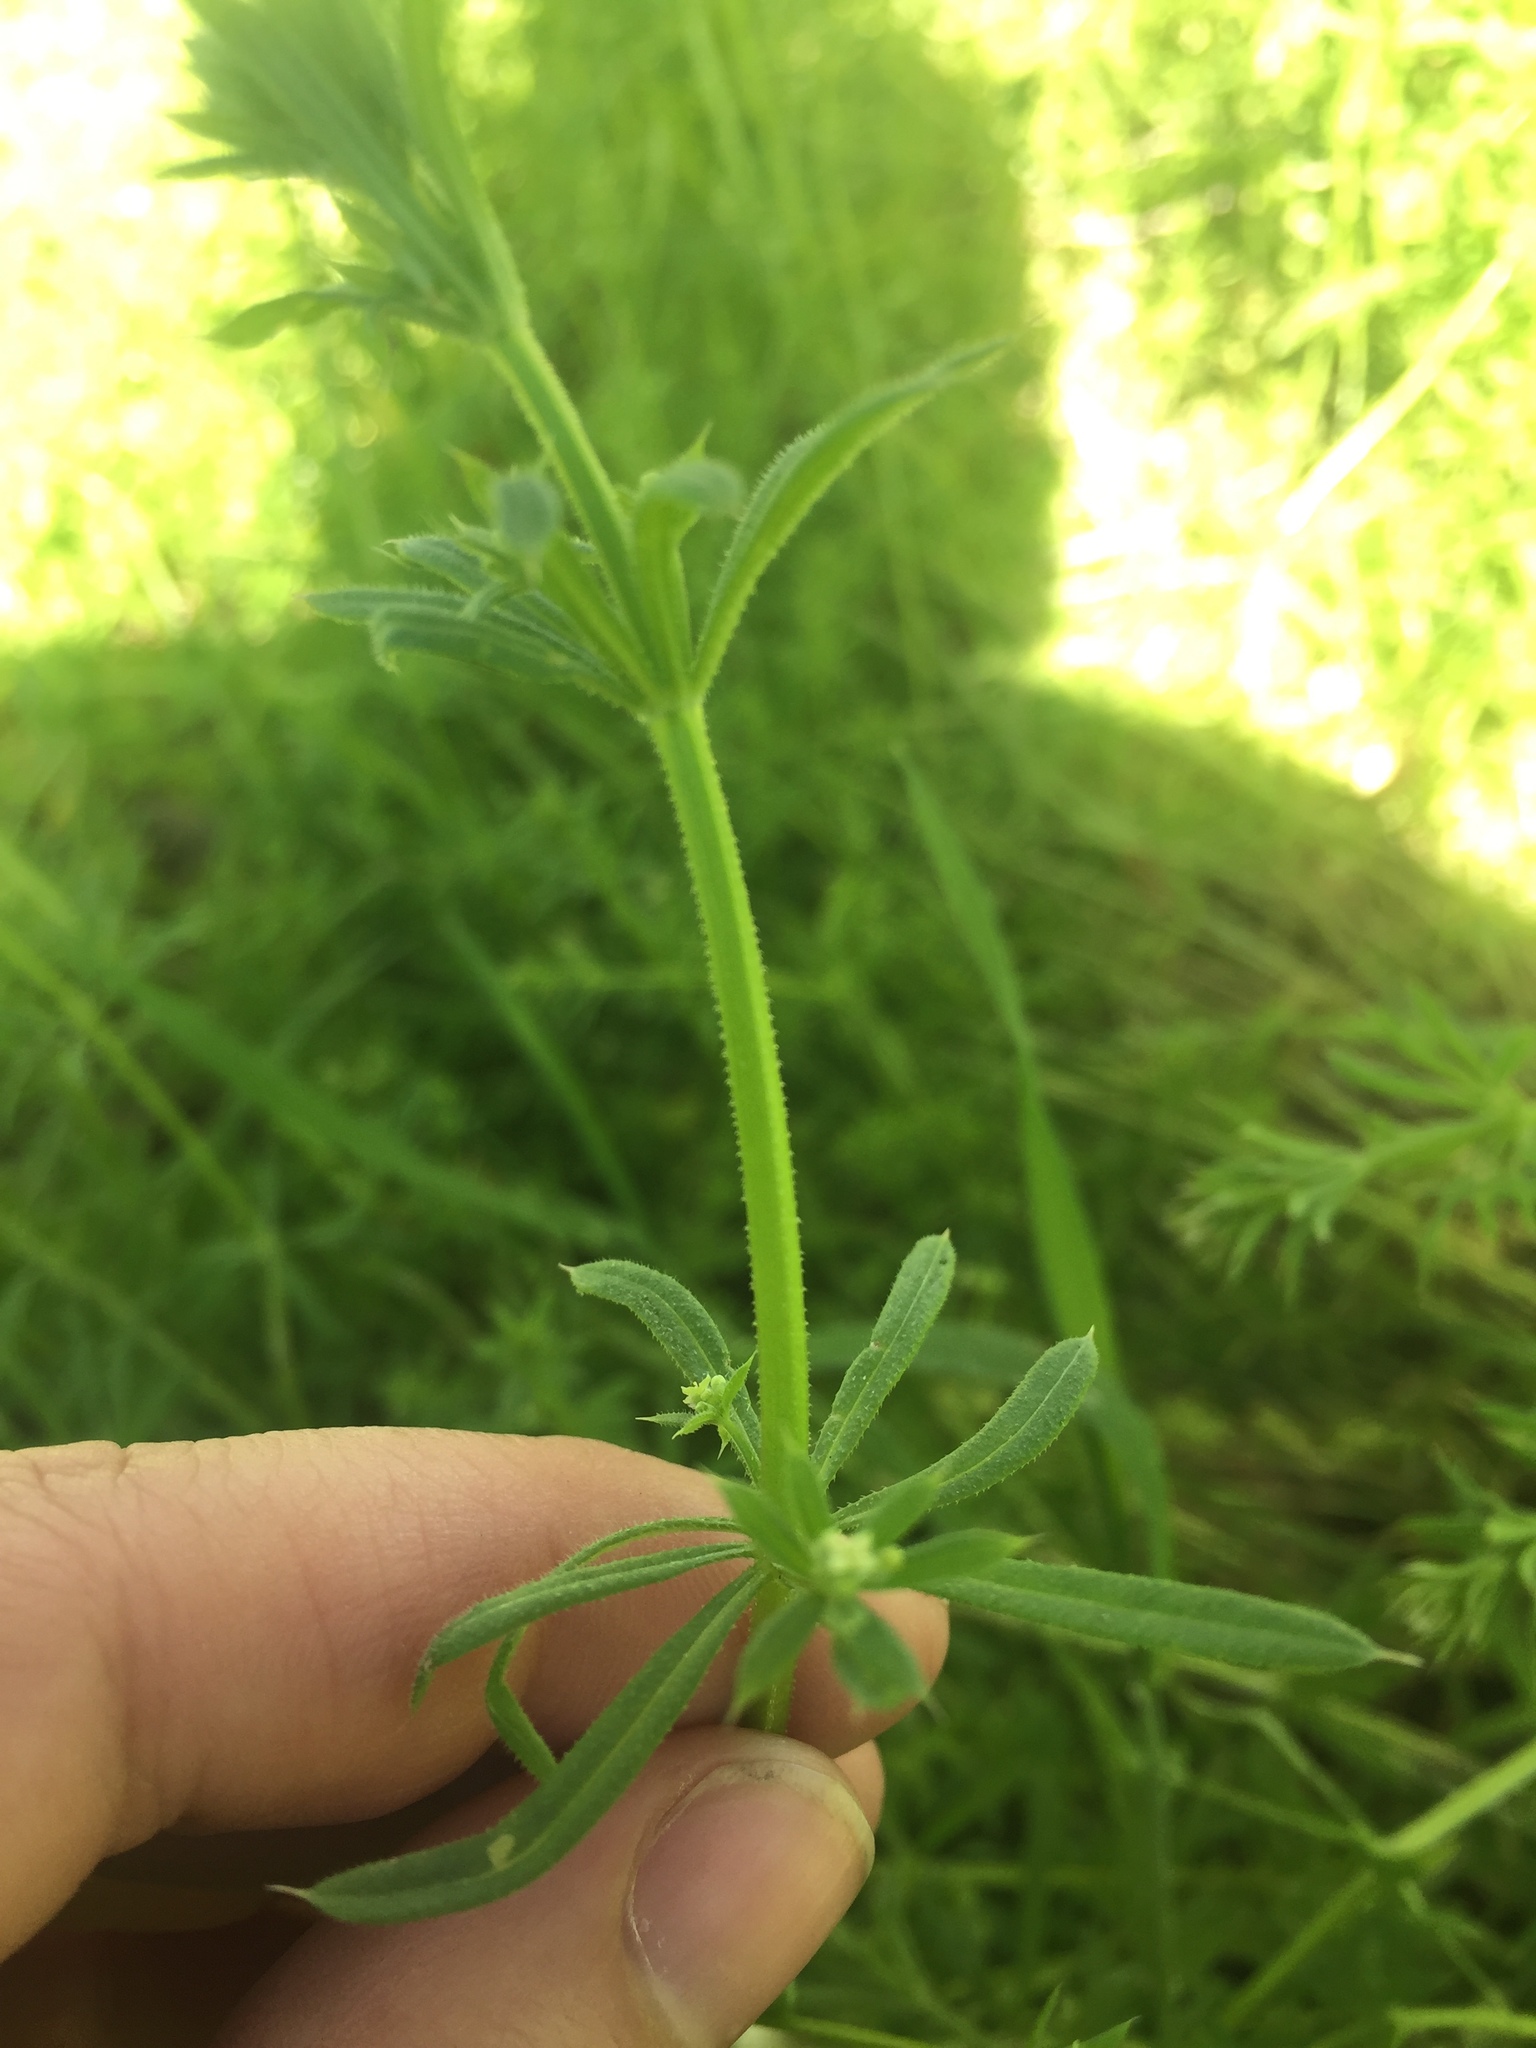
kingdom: Plantae
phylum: Tracheophyta
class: Magnoliopsida
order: Gentianales
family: Rubiaceae
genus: Galium
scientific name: Galium aparine
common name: Cleavers
